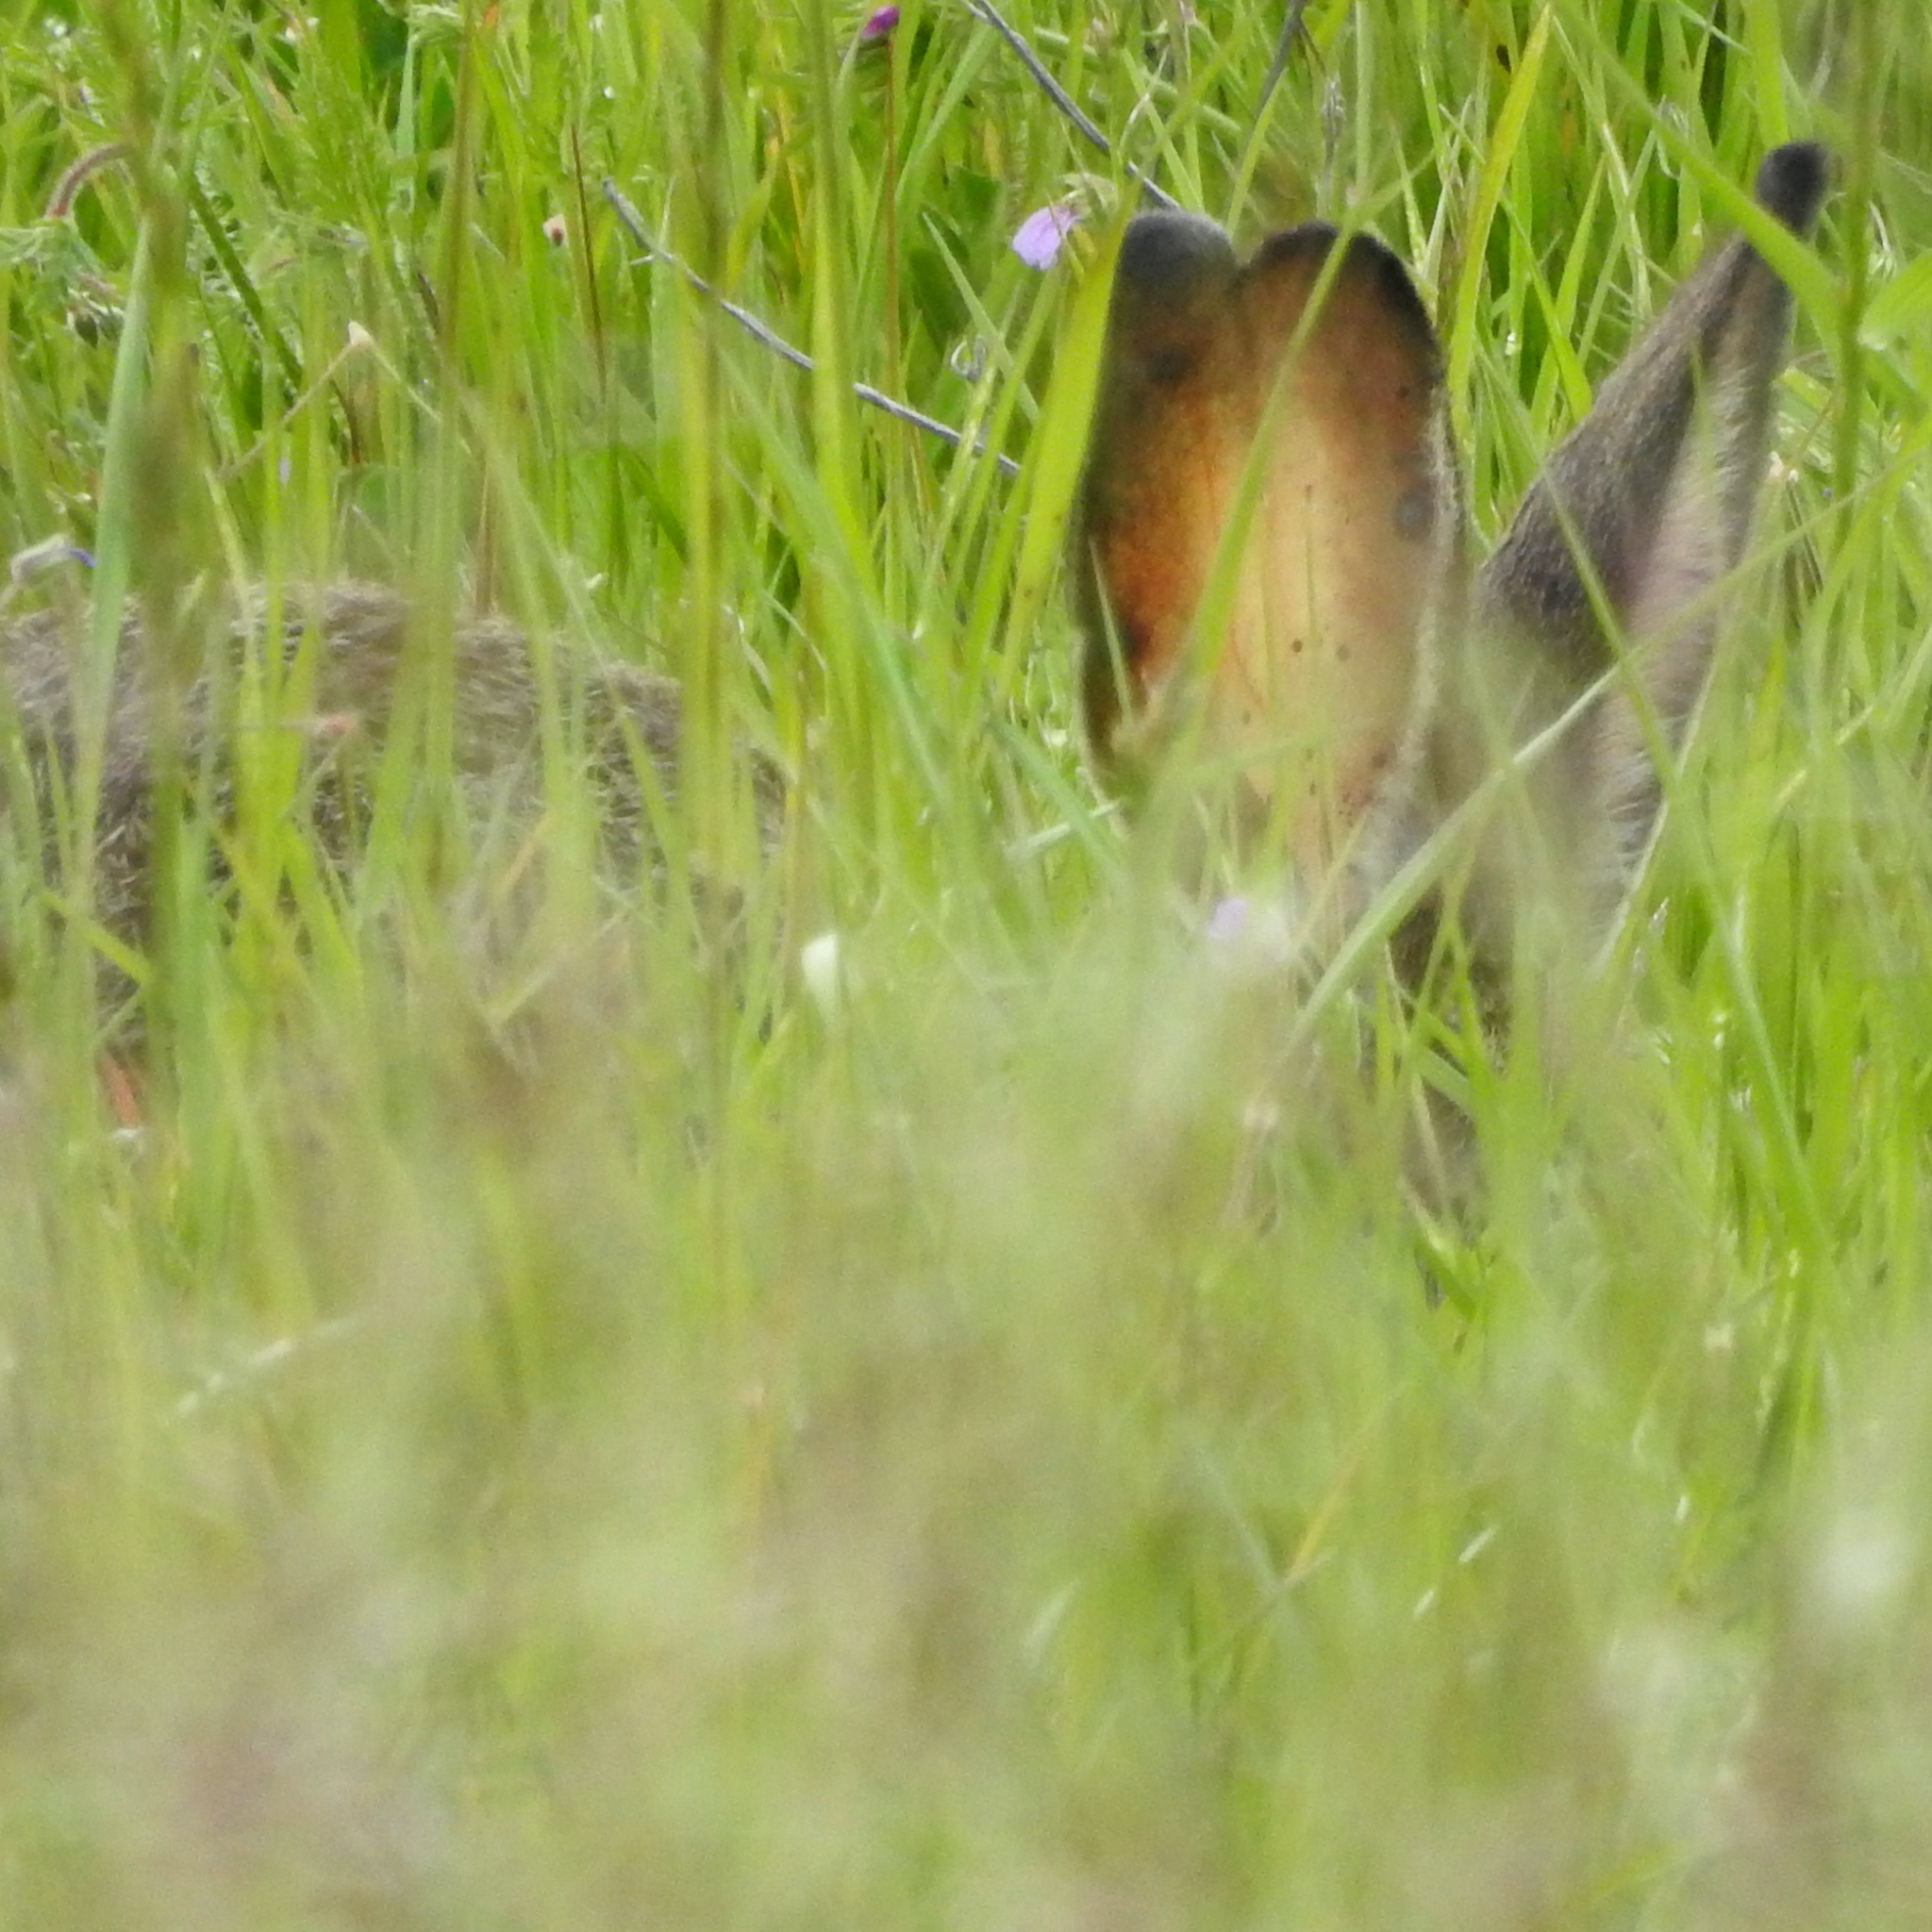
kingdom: Animalia
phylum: Chordata
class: Mammalia
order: Lagomorpha
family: Leporidae
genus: Lepus
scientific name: Lepus californicus
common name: Black-tailed jackrabbit
